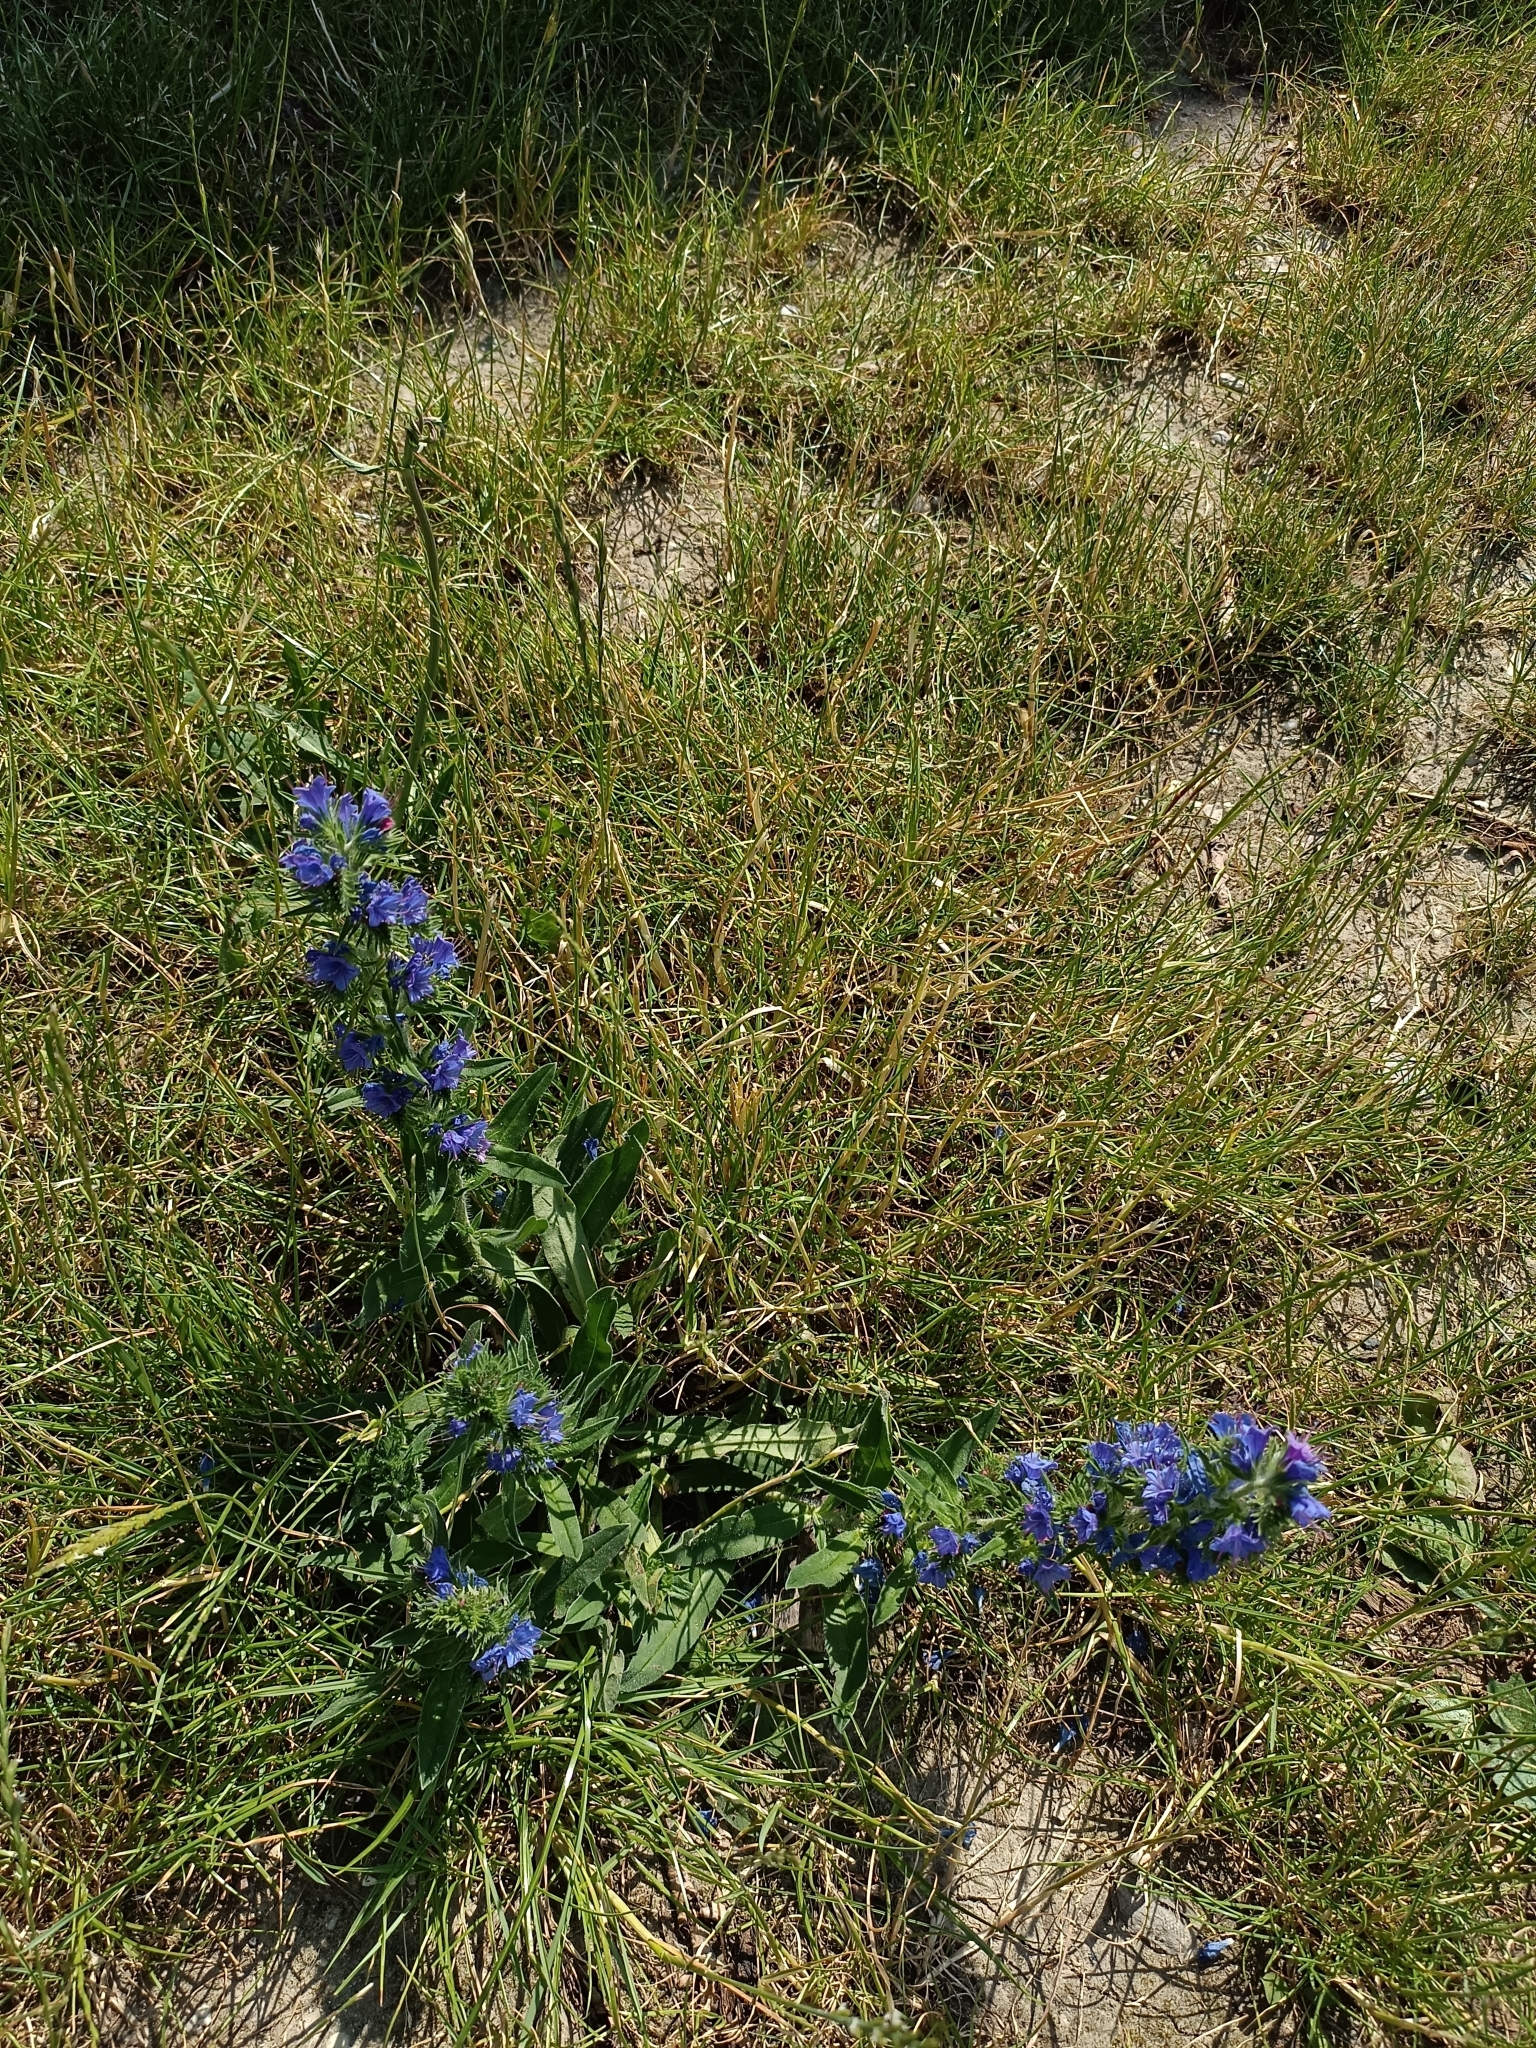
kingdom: Plantae
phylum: Tracheophyta
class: Magnoliopsida
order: Boraginales
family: Boraginaceae
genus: Echium
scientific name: Echium vulgare
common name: Common viper's bugloss
